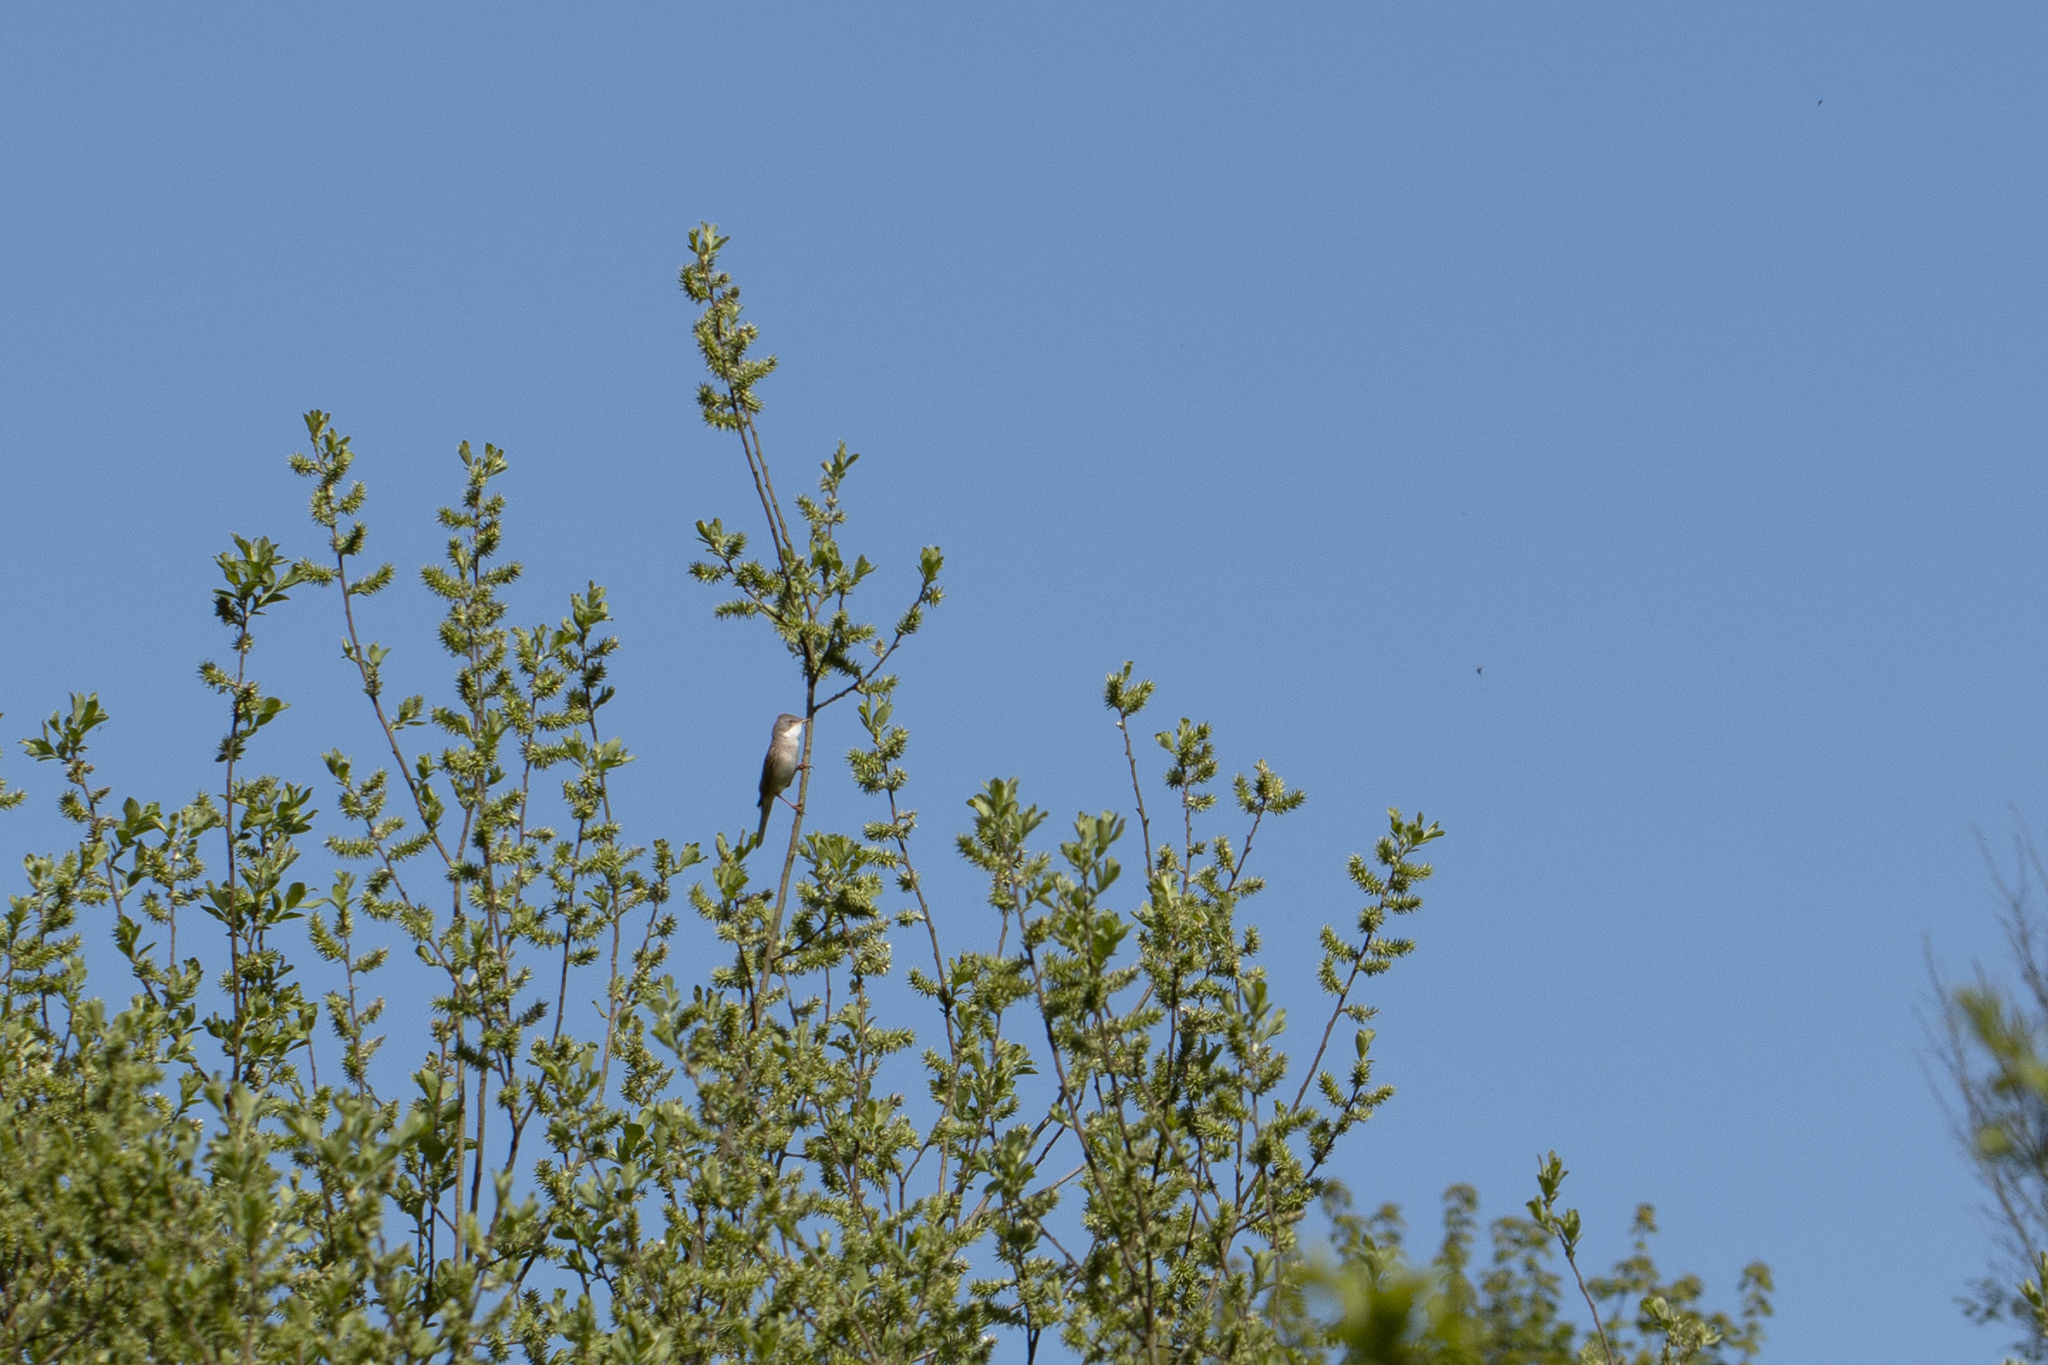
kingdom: Animalia
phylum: Chordata
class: Aves
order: Passeriformes
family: Sylviidae
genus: Sylvia
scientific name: Sylvia communis
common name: Common whitethroat
